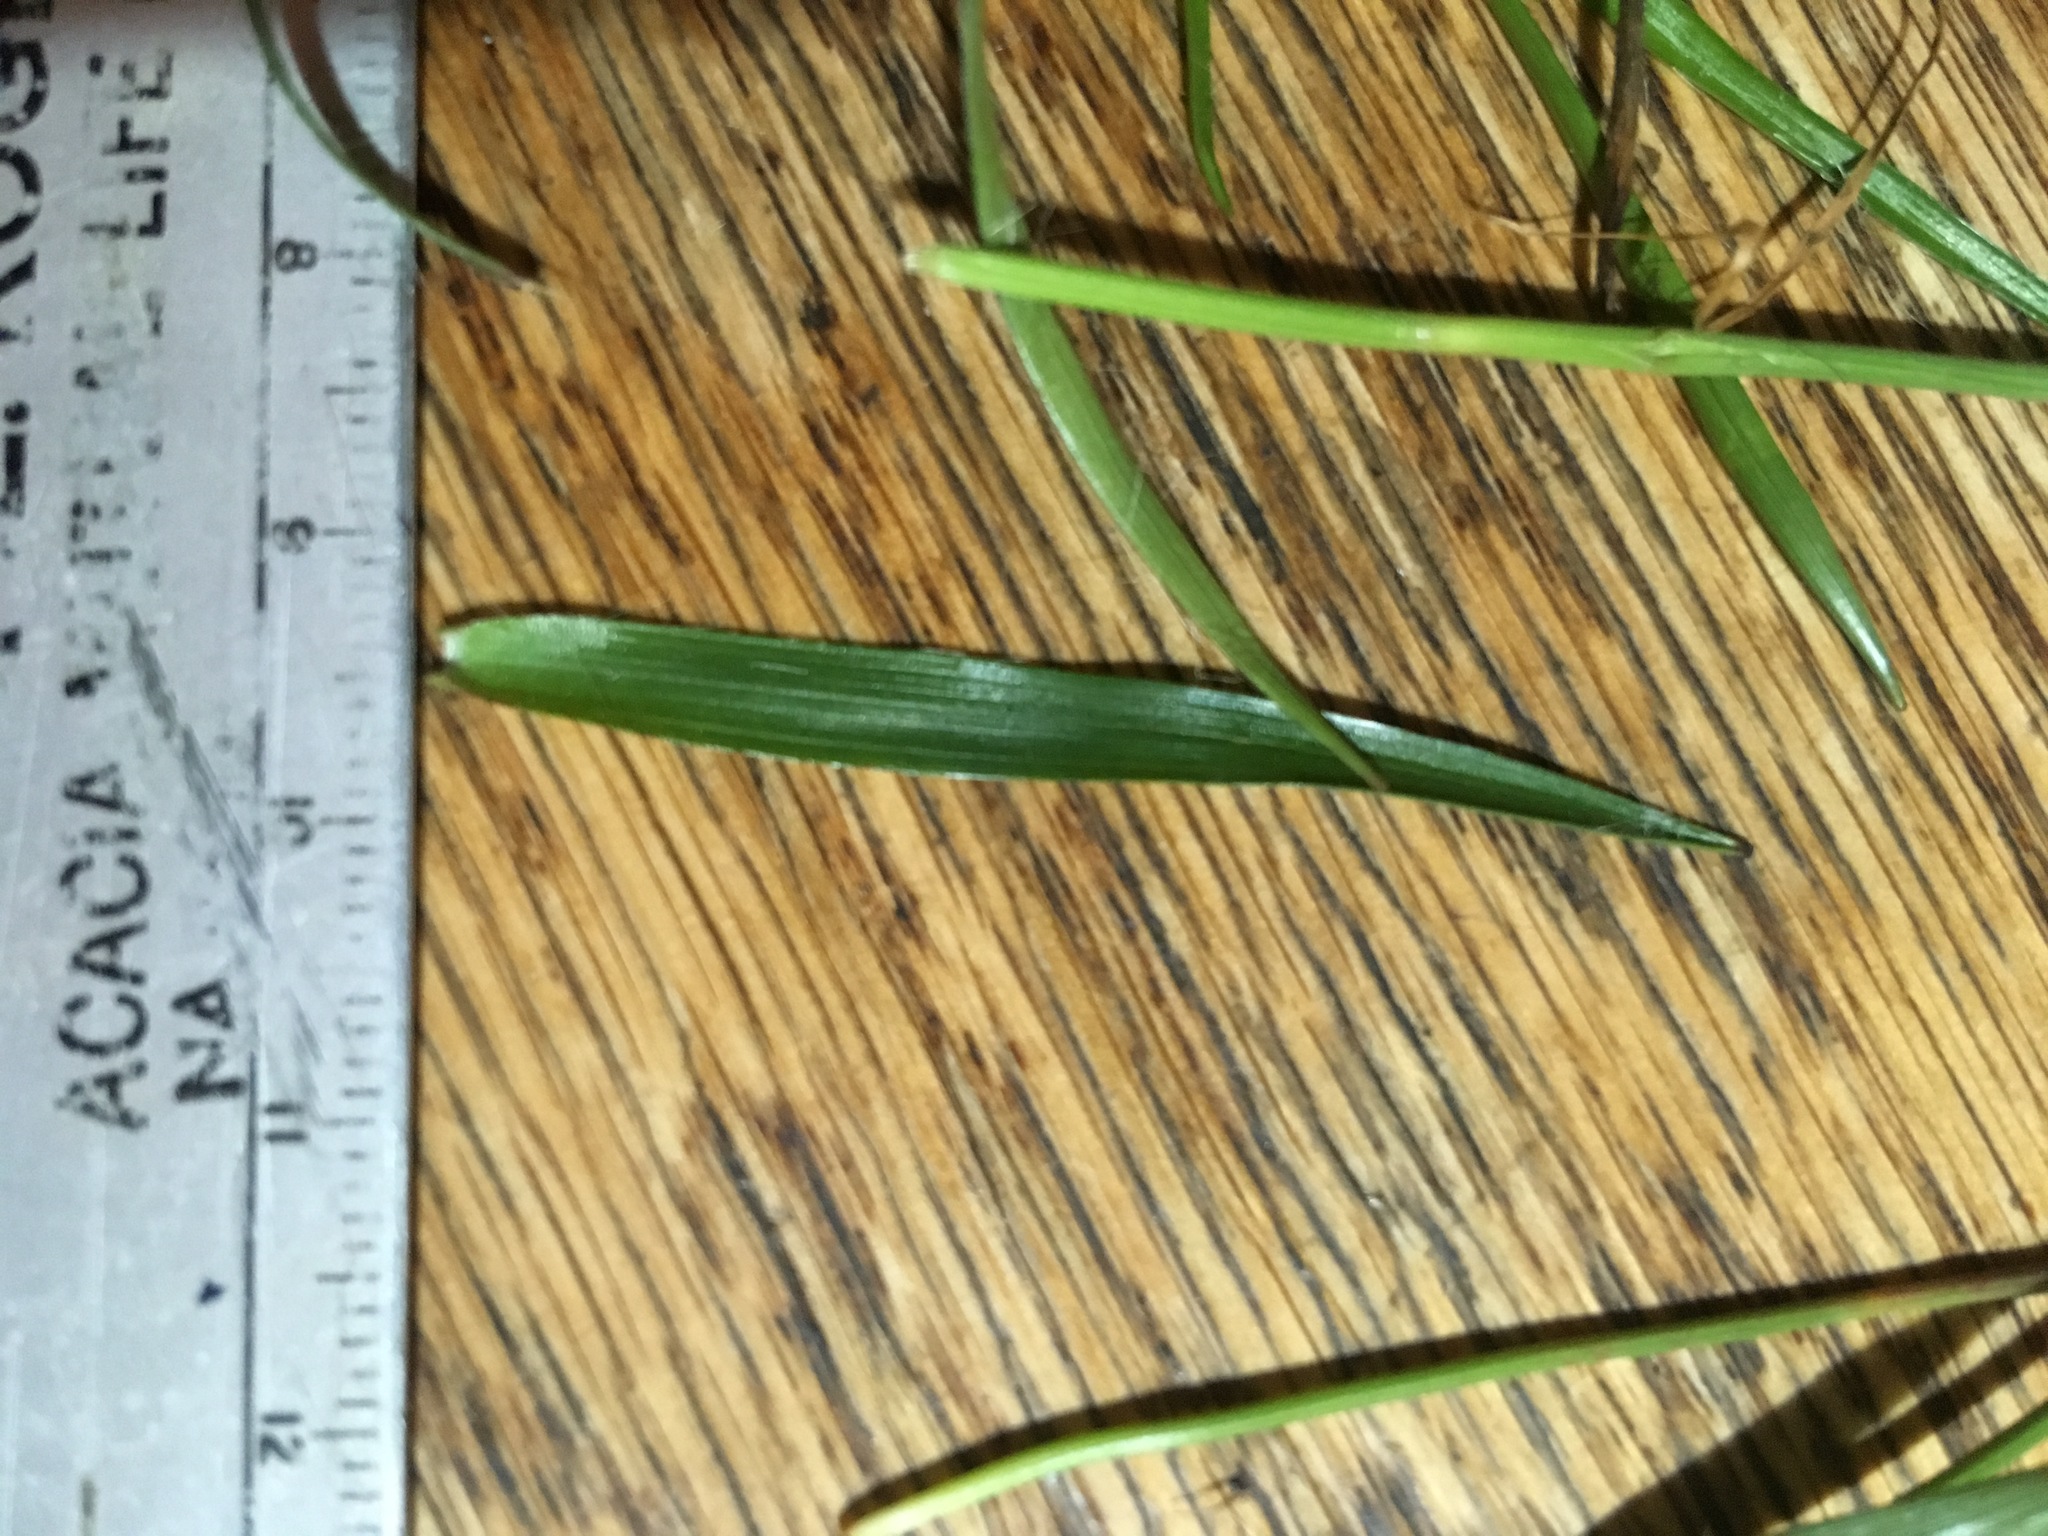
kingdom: Plantae
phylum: Tracheophyta
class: Liliopsida
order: Poales
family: Juncaceae
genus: Luzula
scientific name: Luzula multiflora
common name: Heath wood-rush
